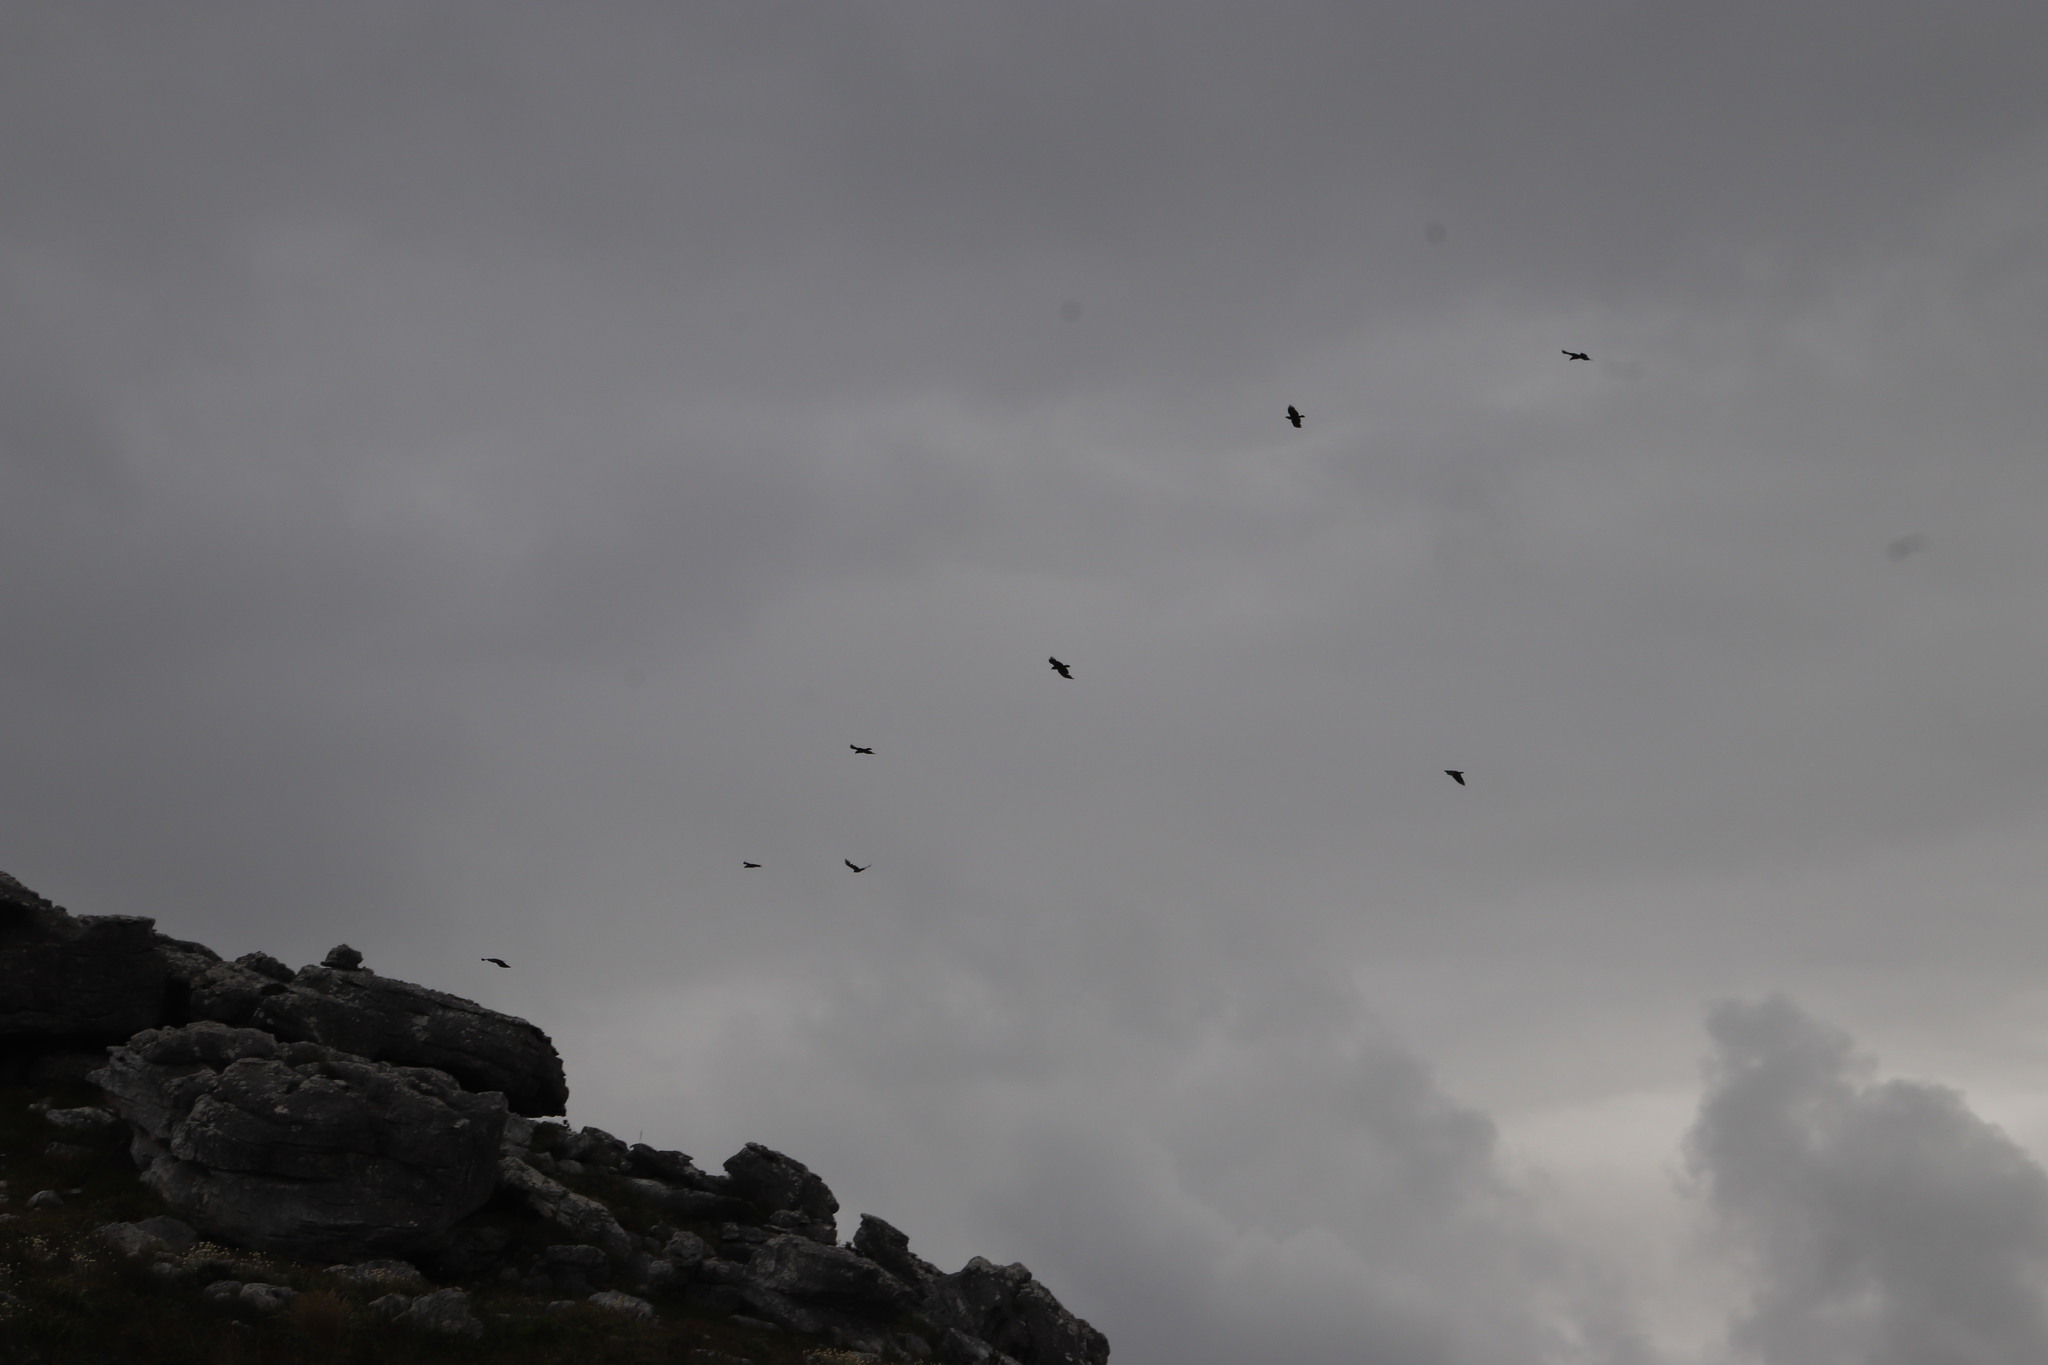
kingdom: Animalia
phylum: Chordata
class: Aves
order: Passeriformes
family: Corvidae
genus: Corvus
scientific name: Corvus albus
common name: Pied crow
